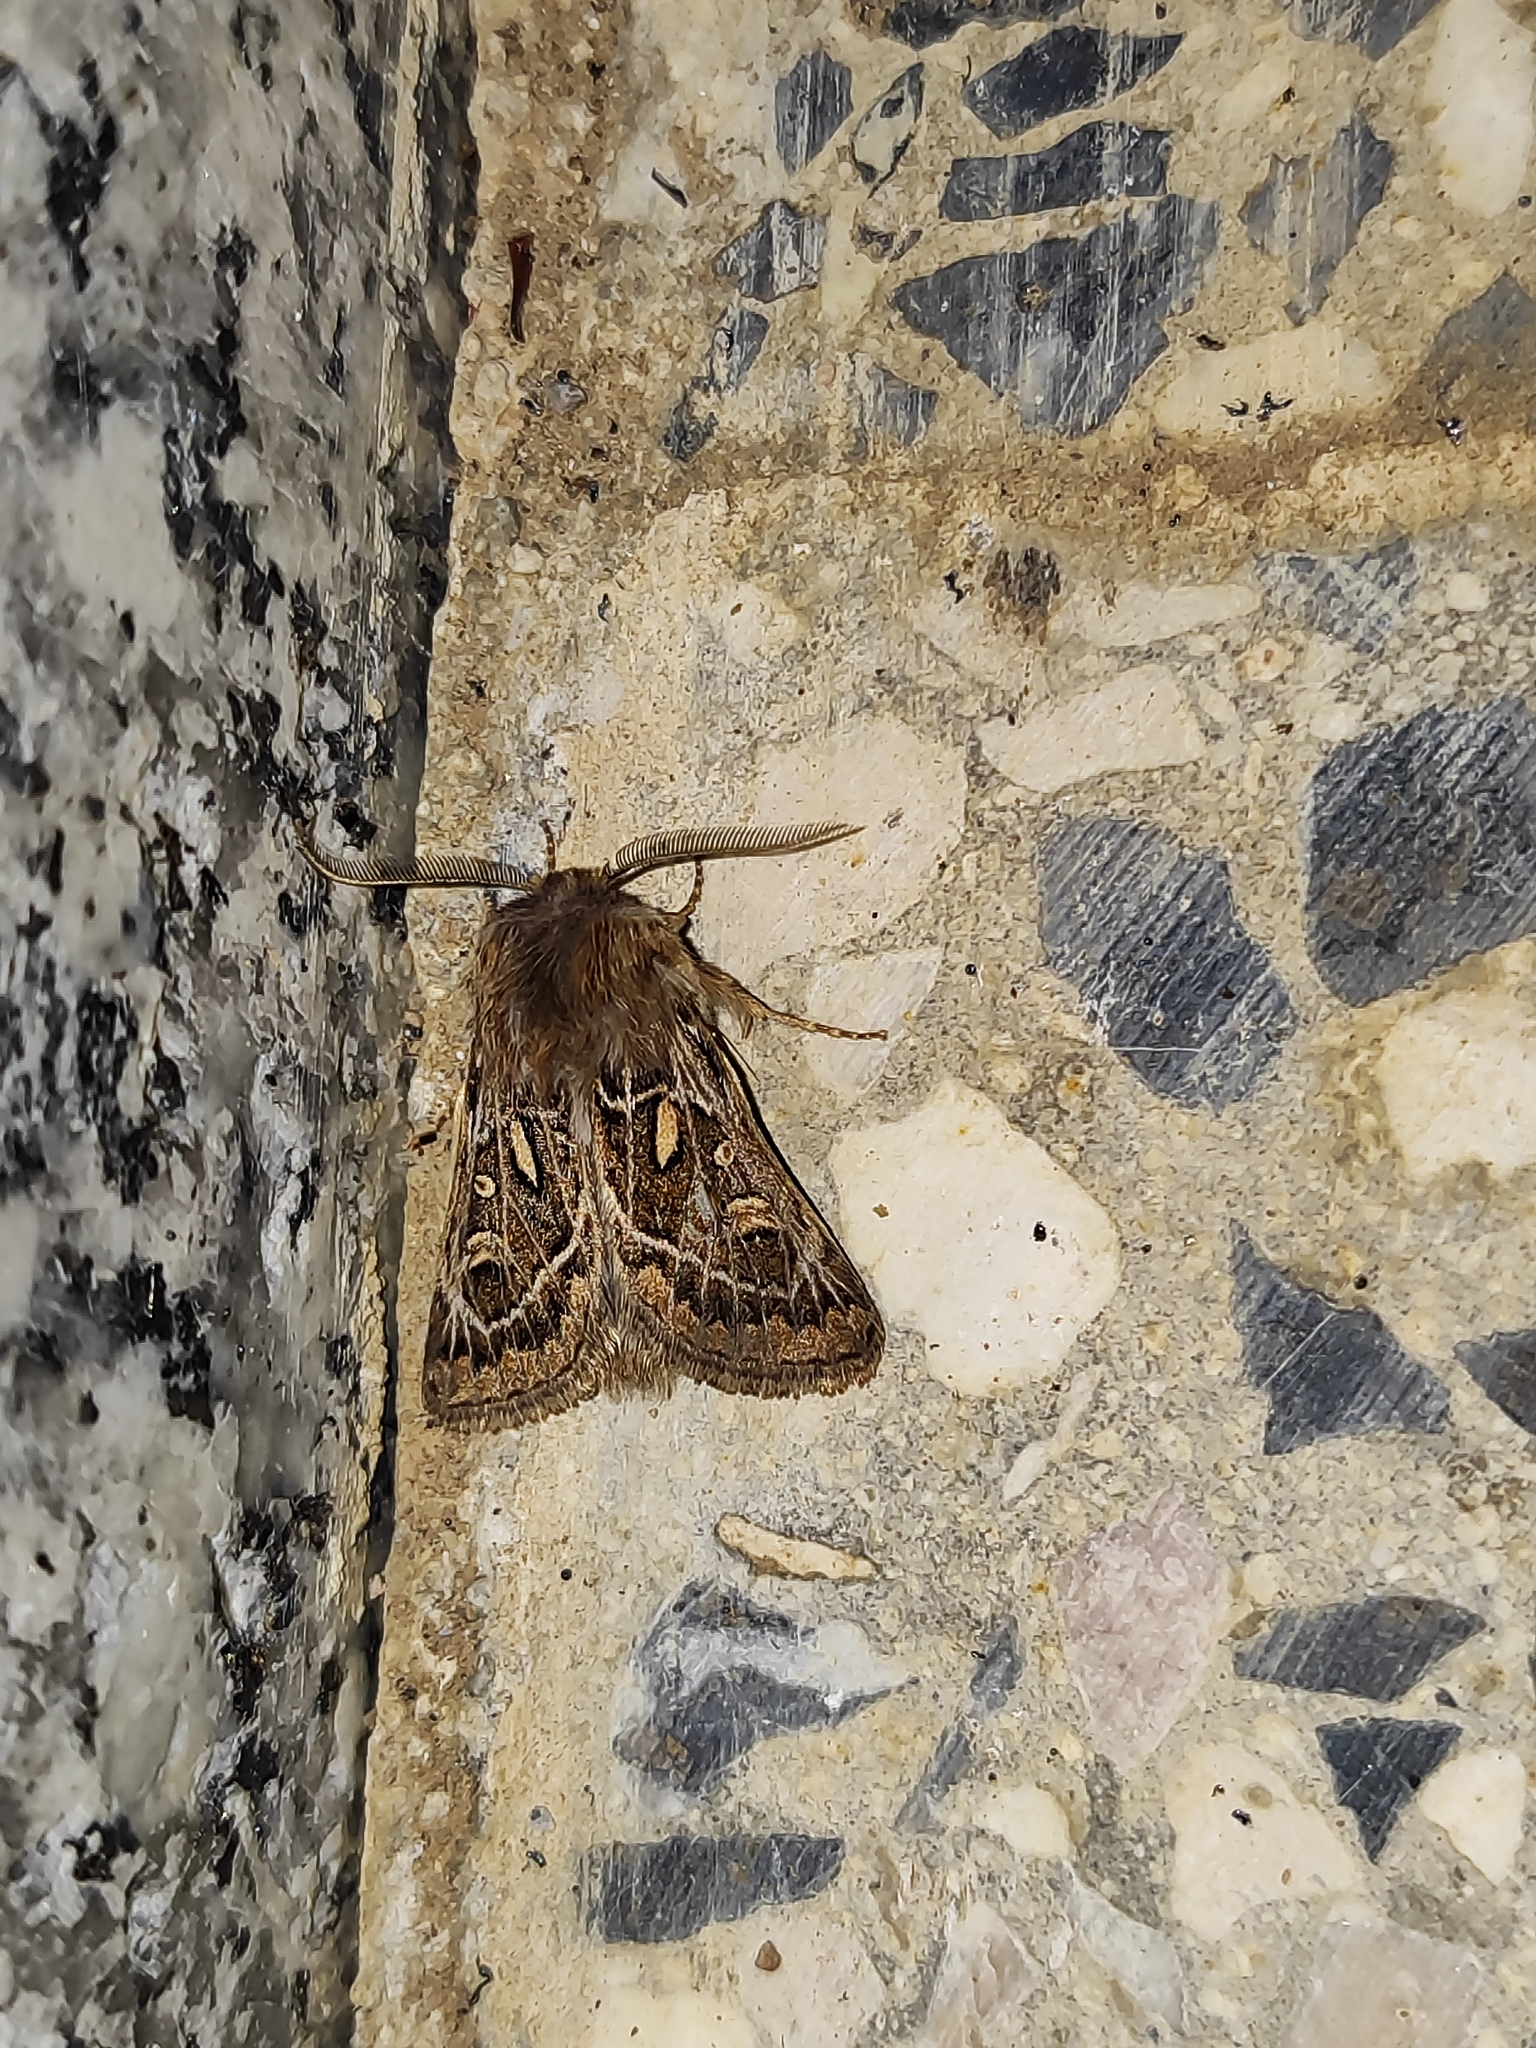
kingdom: Animalia
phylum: Arthropoda
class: Insecta
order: Lepidoptera
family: Noctuidae
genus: Ulochlaena
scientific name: Ulochlaena hirta
